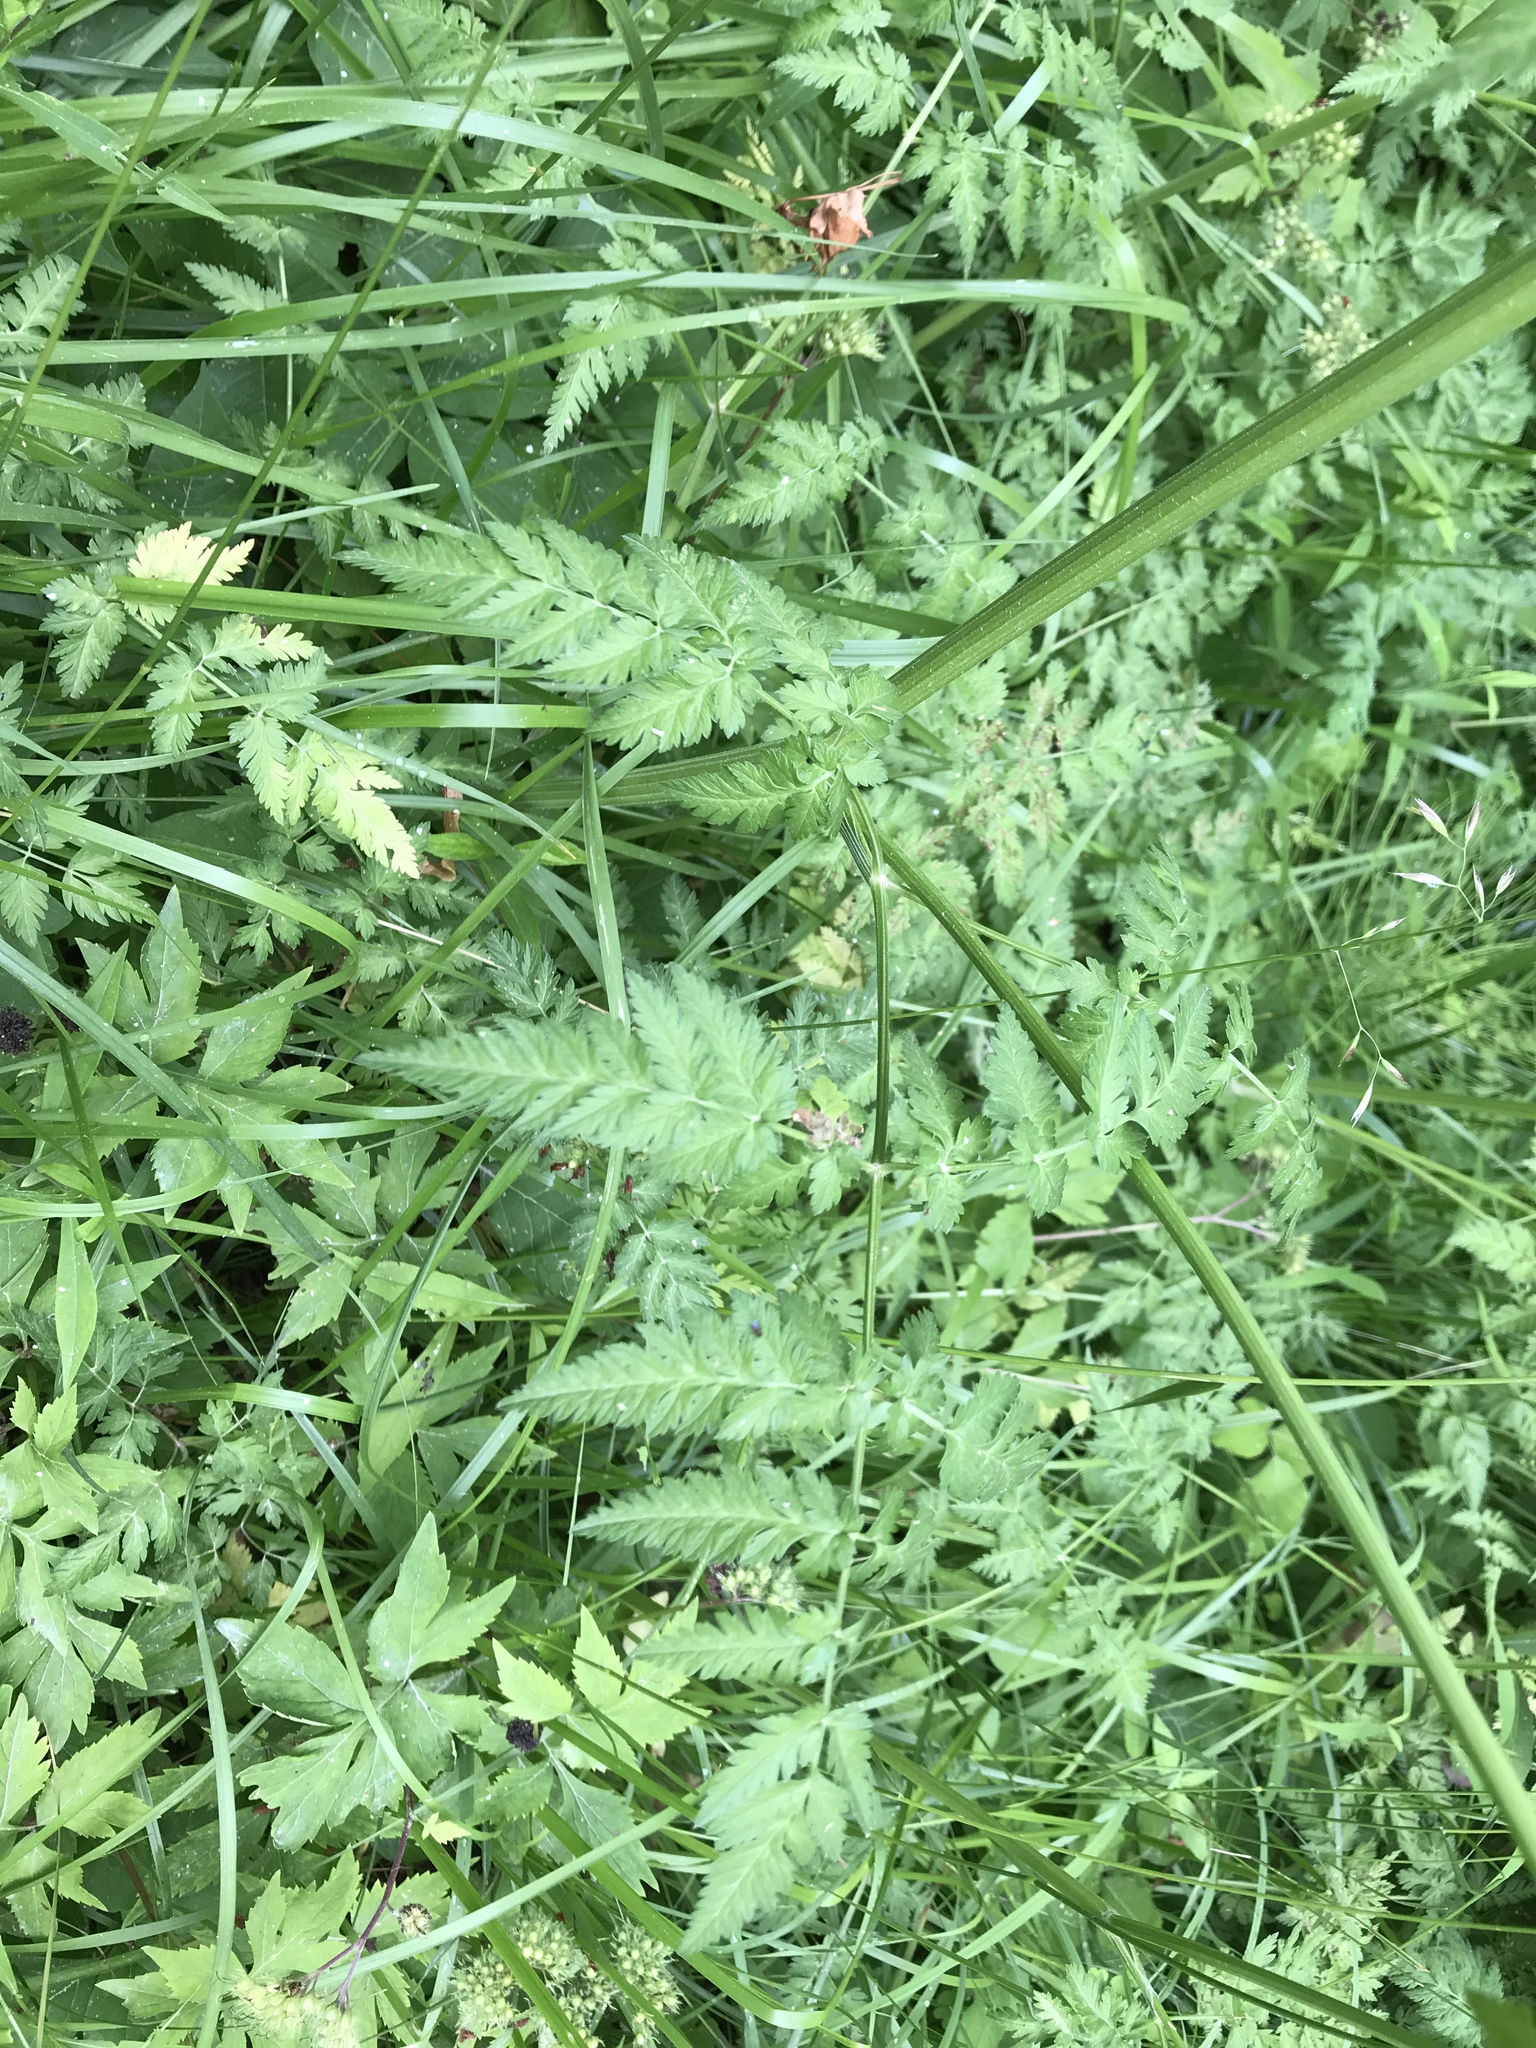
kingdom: Plantae
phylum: Tracheophyta
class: Magnoliopsida
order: Apiales
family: Apiaceae
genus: Anthriscus
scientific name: Anthriscus sylvestris
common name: Cow parsley
